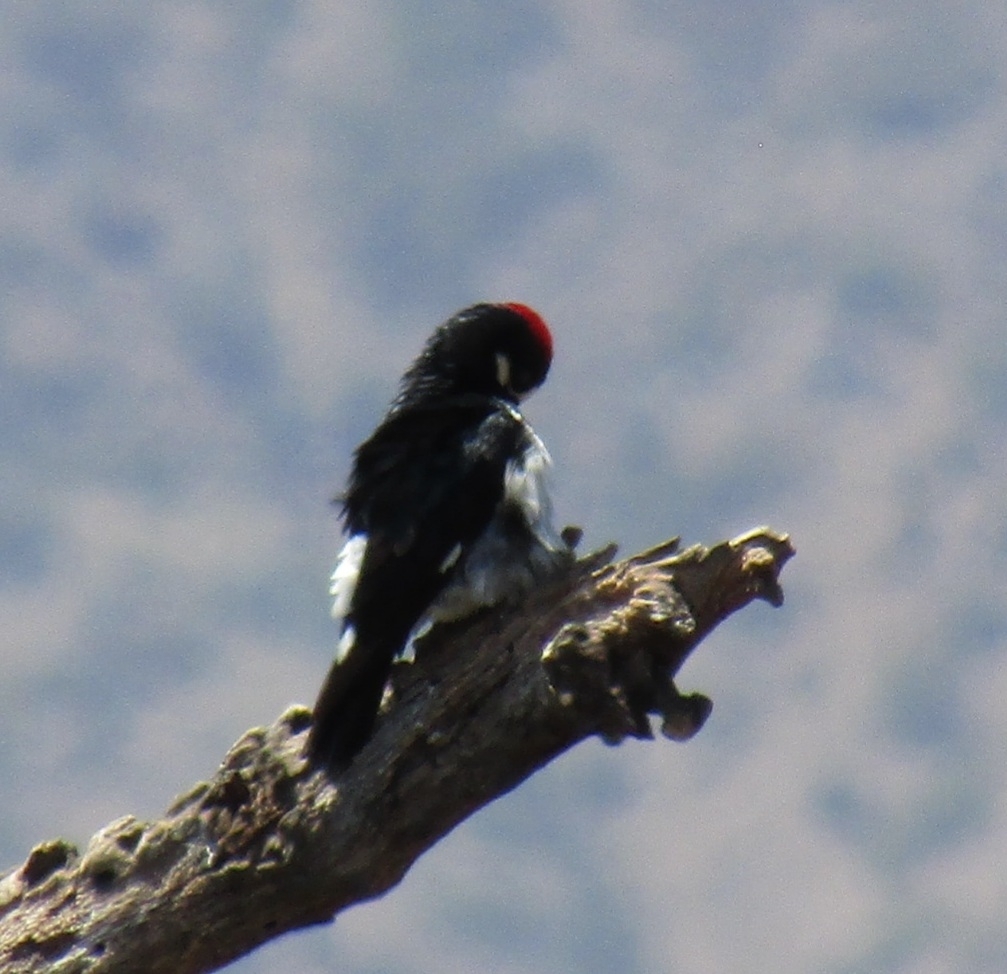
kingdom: Animalia
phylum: Chordata
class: Aves
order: Piciformes
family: Picidae
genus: Melanerpes
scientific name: Melanerpes formicivorus
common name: Acorn woodpecker
